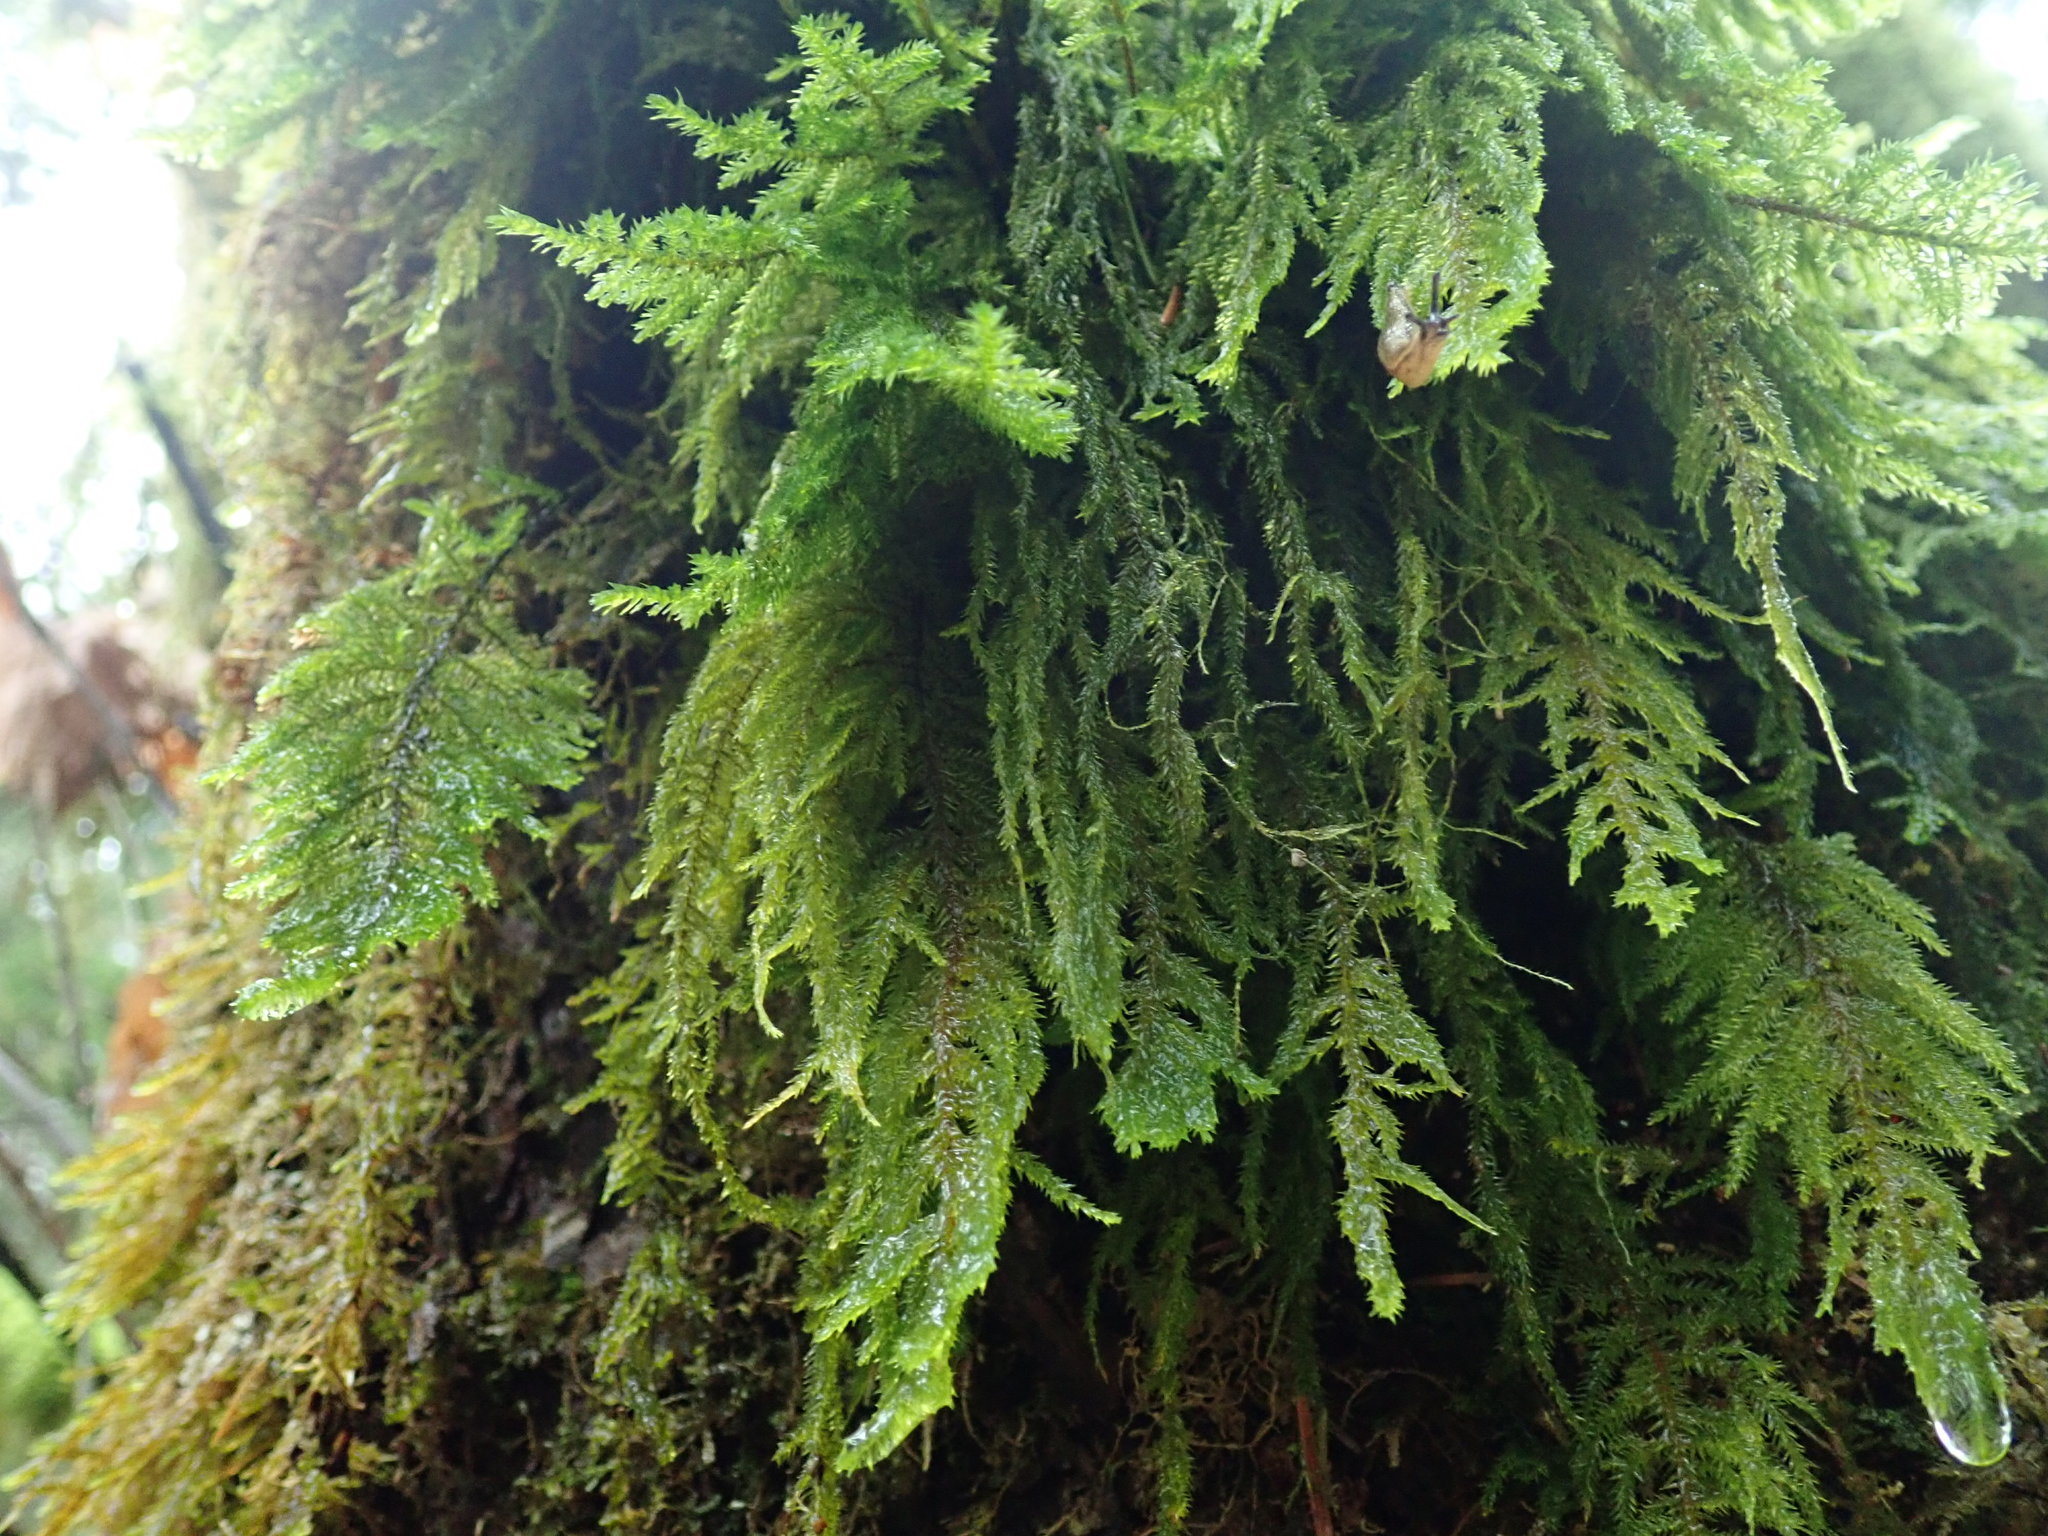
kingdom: Plantae
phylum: Bryophyta
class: Bryopsida
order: Hypnales
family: Cryphaeaceae
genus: Dendroalsia
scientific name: Dendroalsia abietina
